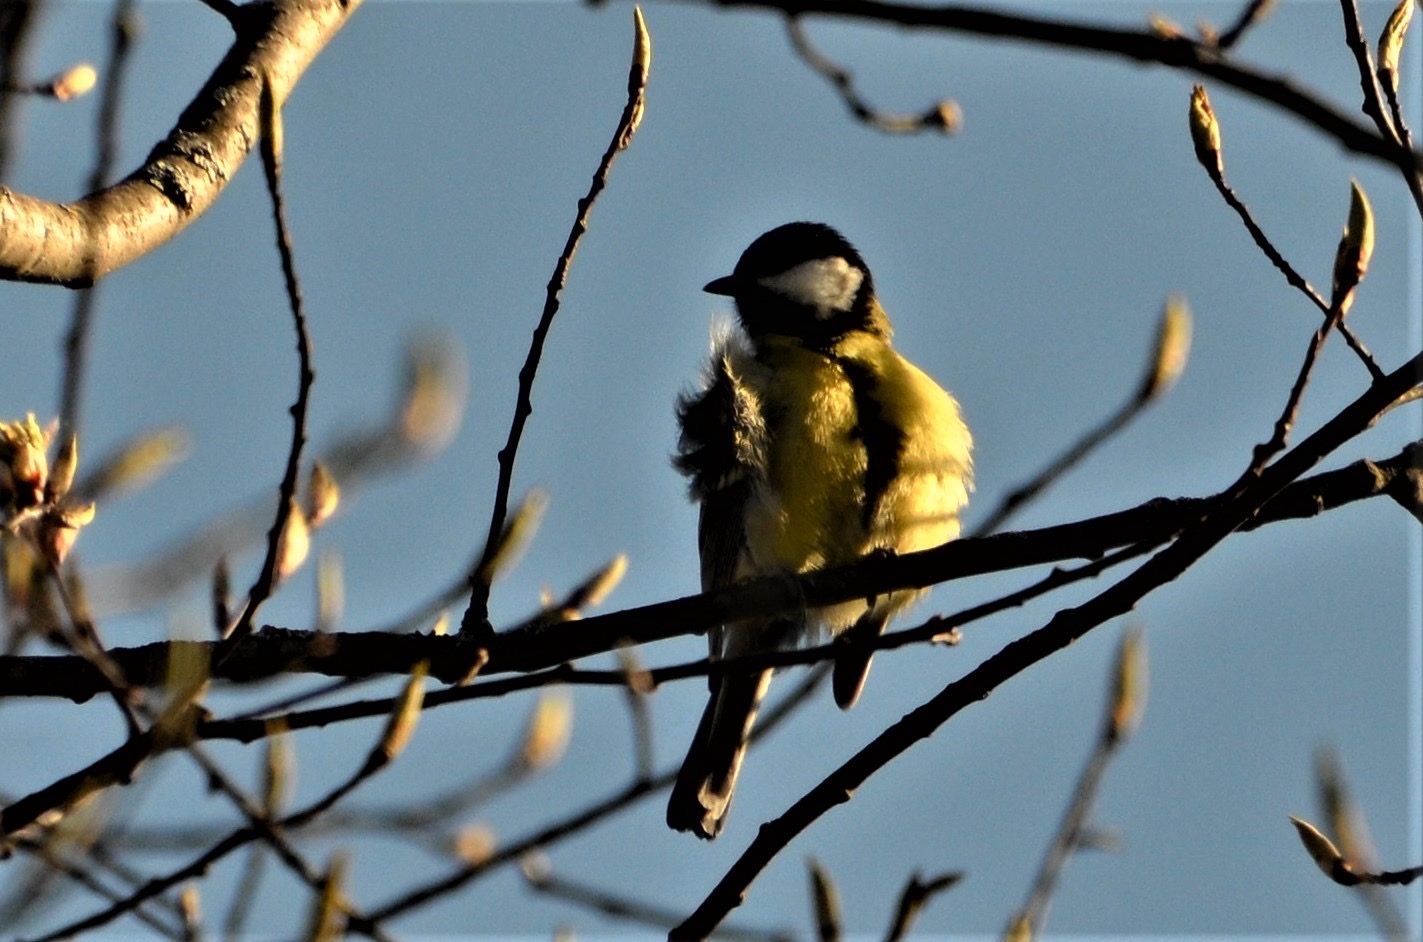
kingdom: Animalia
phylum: Chordata
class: Aves
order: Passeriformes
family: Paridae
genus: Parus
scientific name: Parus major
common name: Great tit
